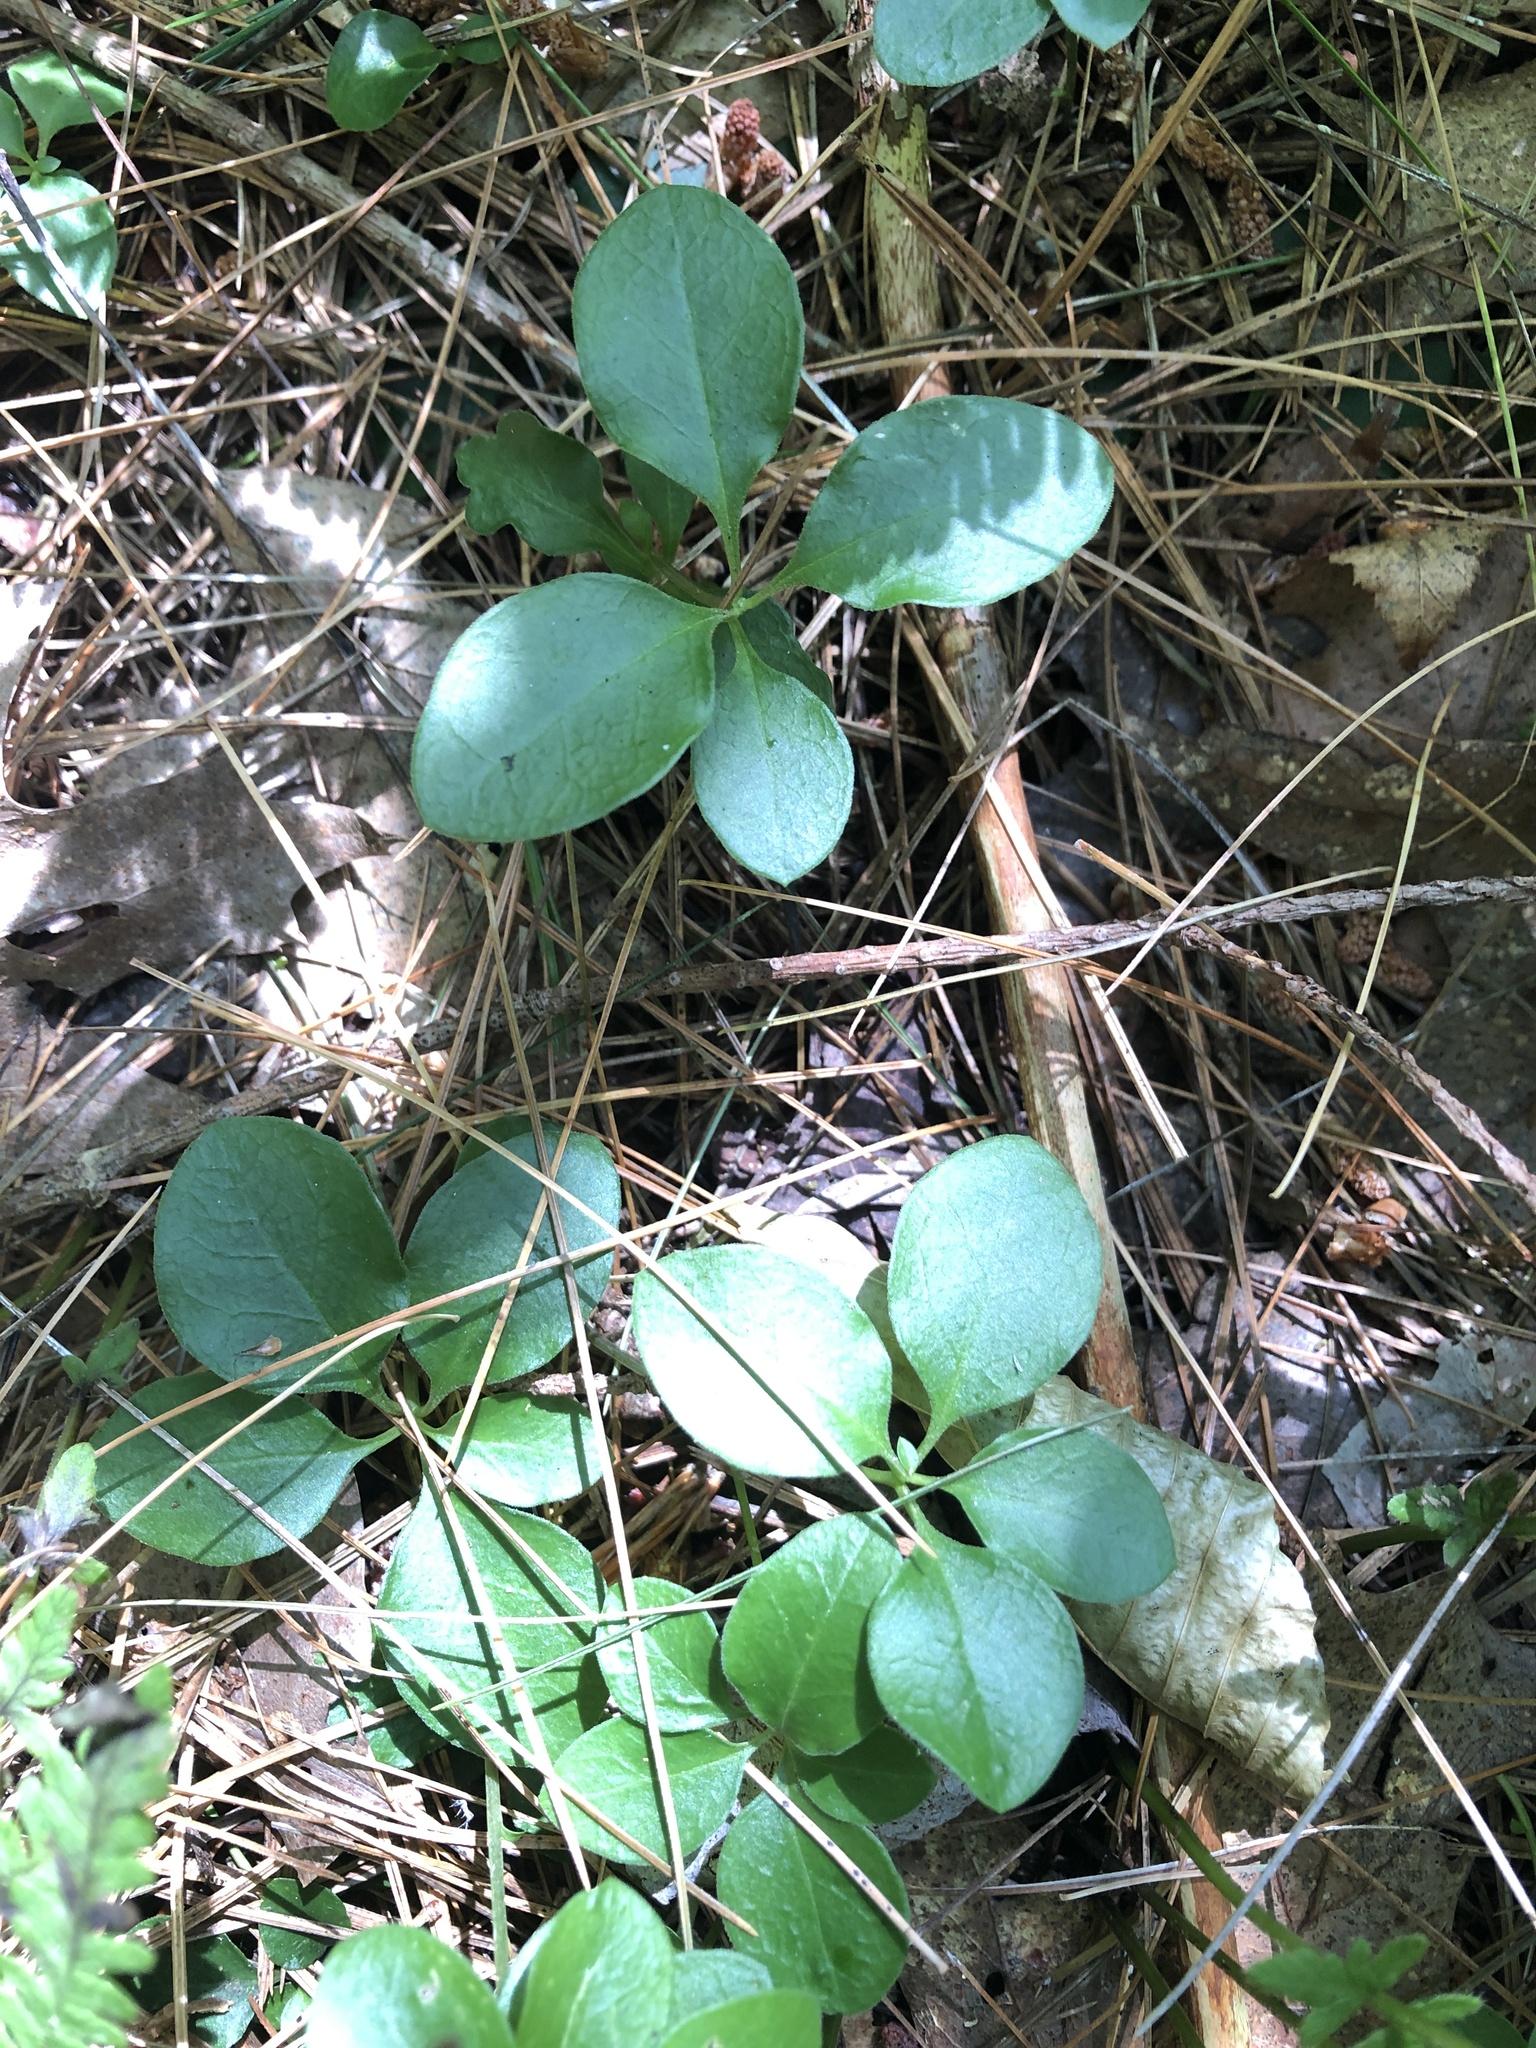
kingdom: Plantae
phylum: Tracheophyta
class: Magnoliopsida
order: Fabales
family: Polygalaceae
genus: Polygaloides
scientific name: Polygaloides paucifolia
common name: Bird-on-the-wing
